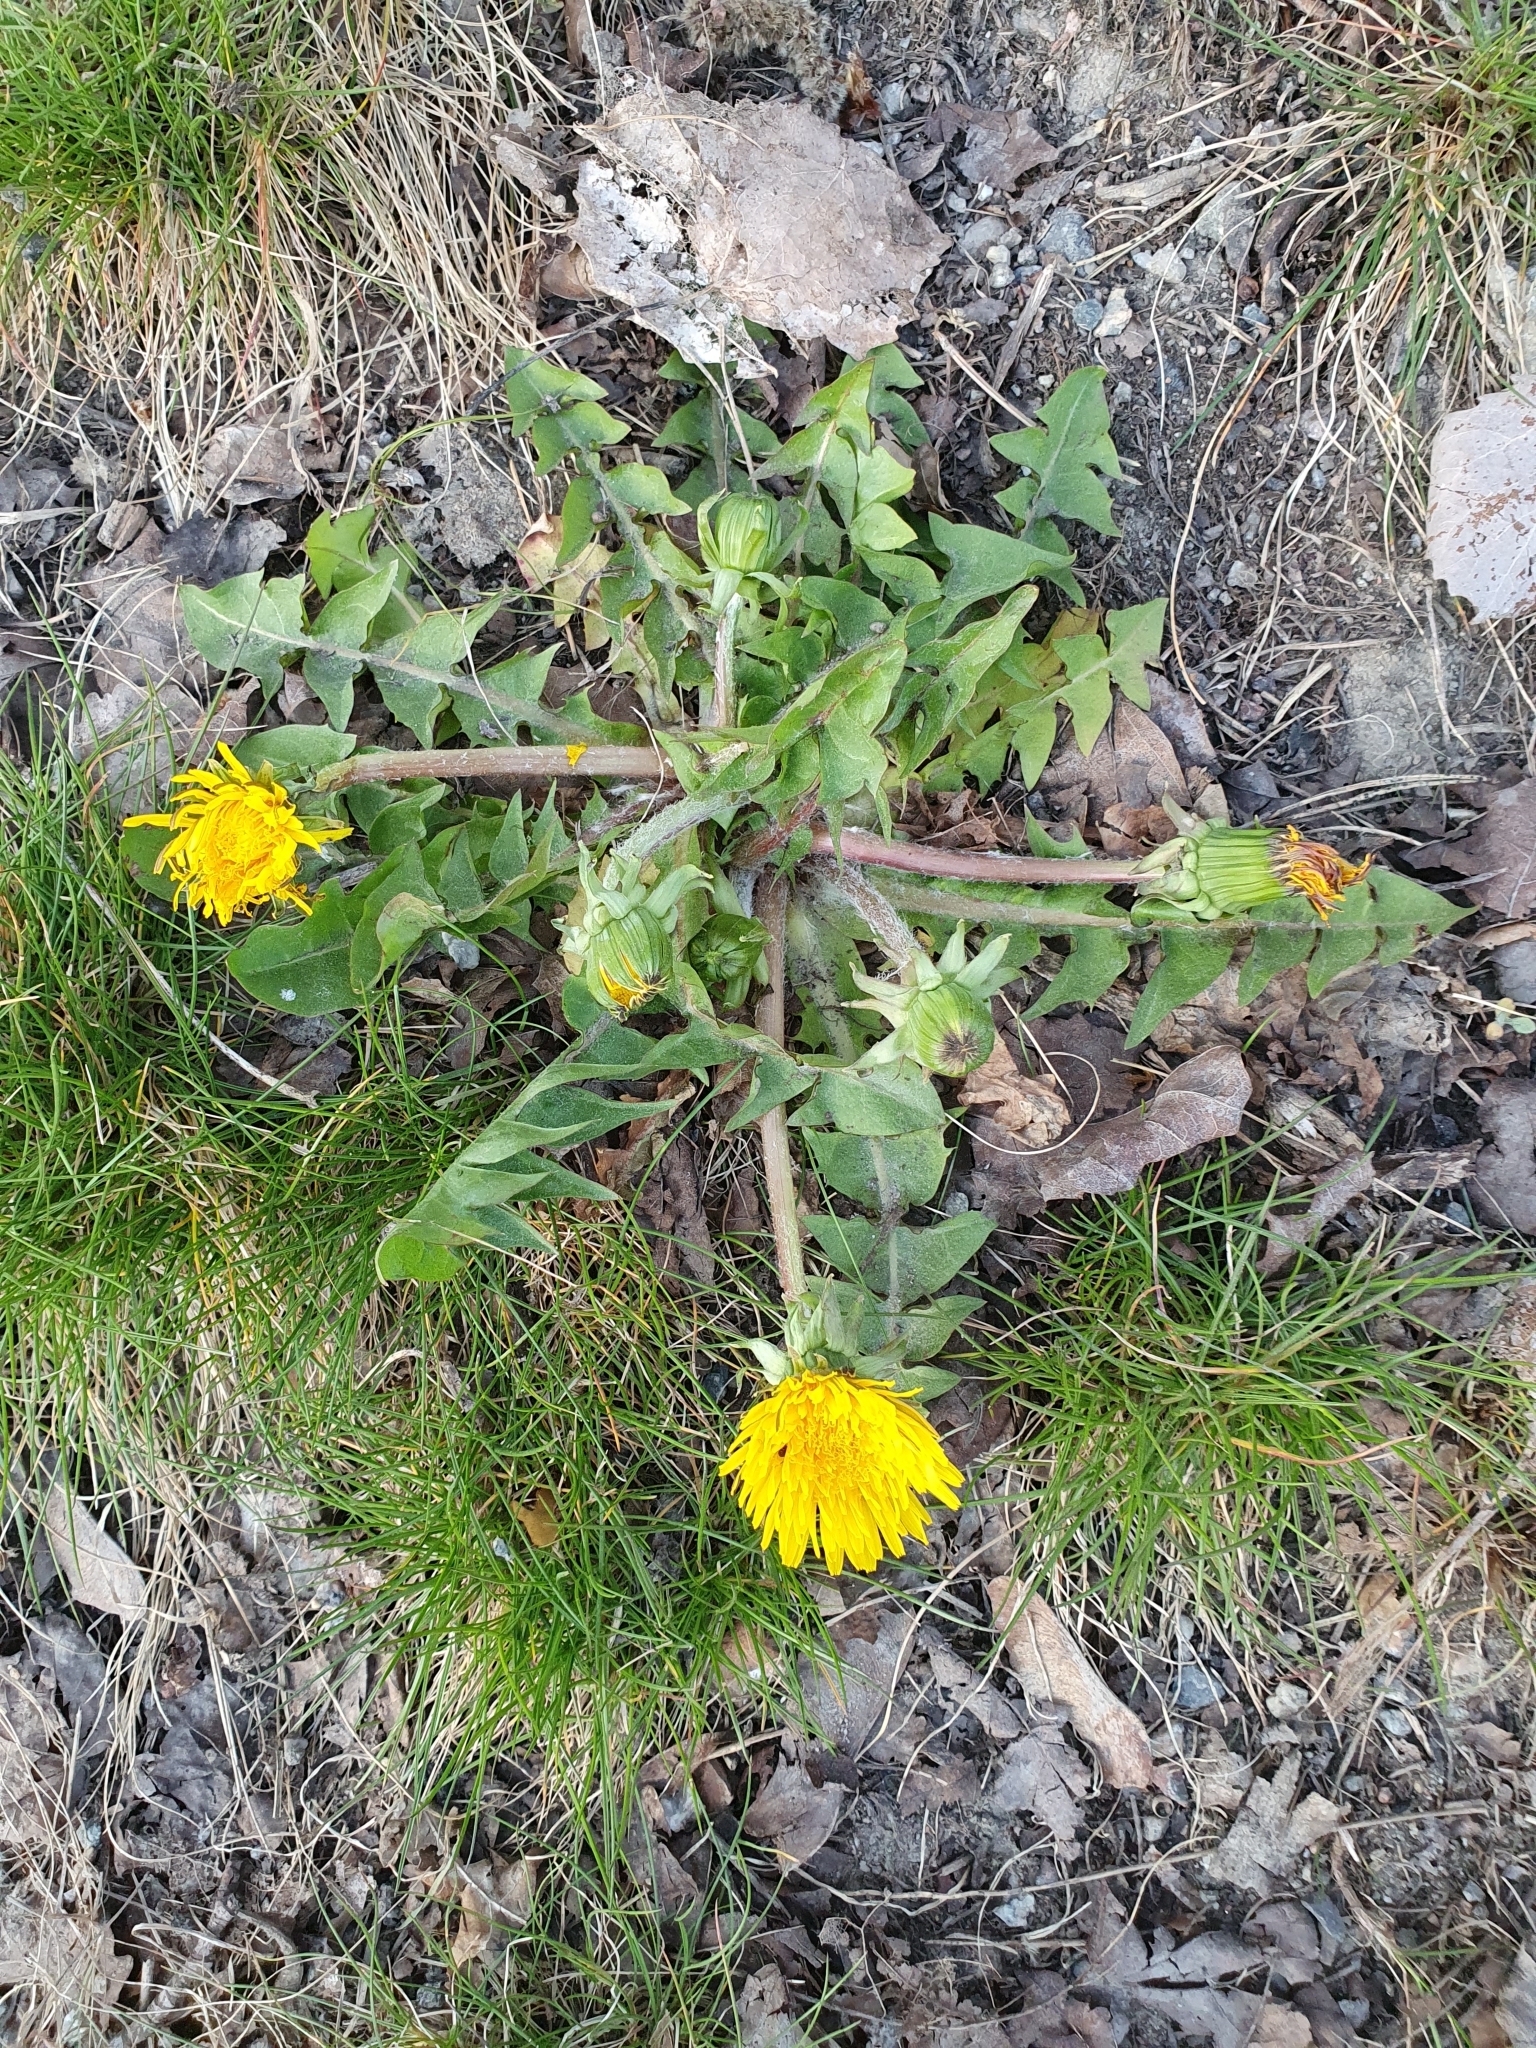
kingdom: Plantae
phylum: Tracheophyta
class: Magnoliopsida
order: Asterales
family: Asteraceae
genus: Taraxacum
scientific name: Taraxacum officinale
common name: Common dandelion
